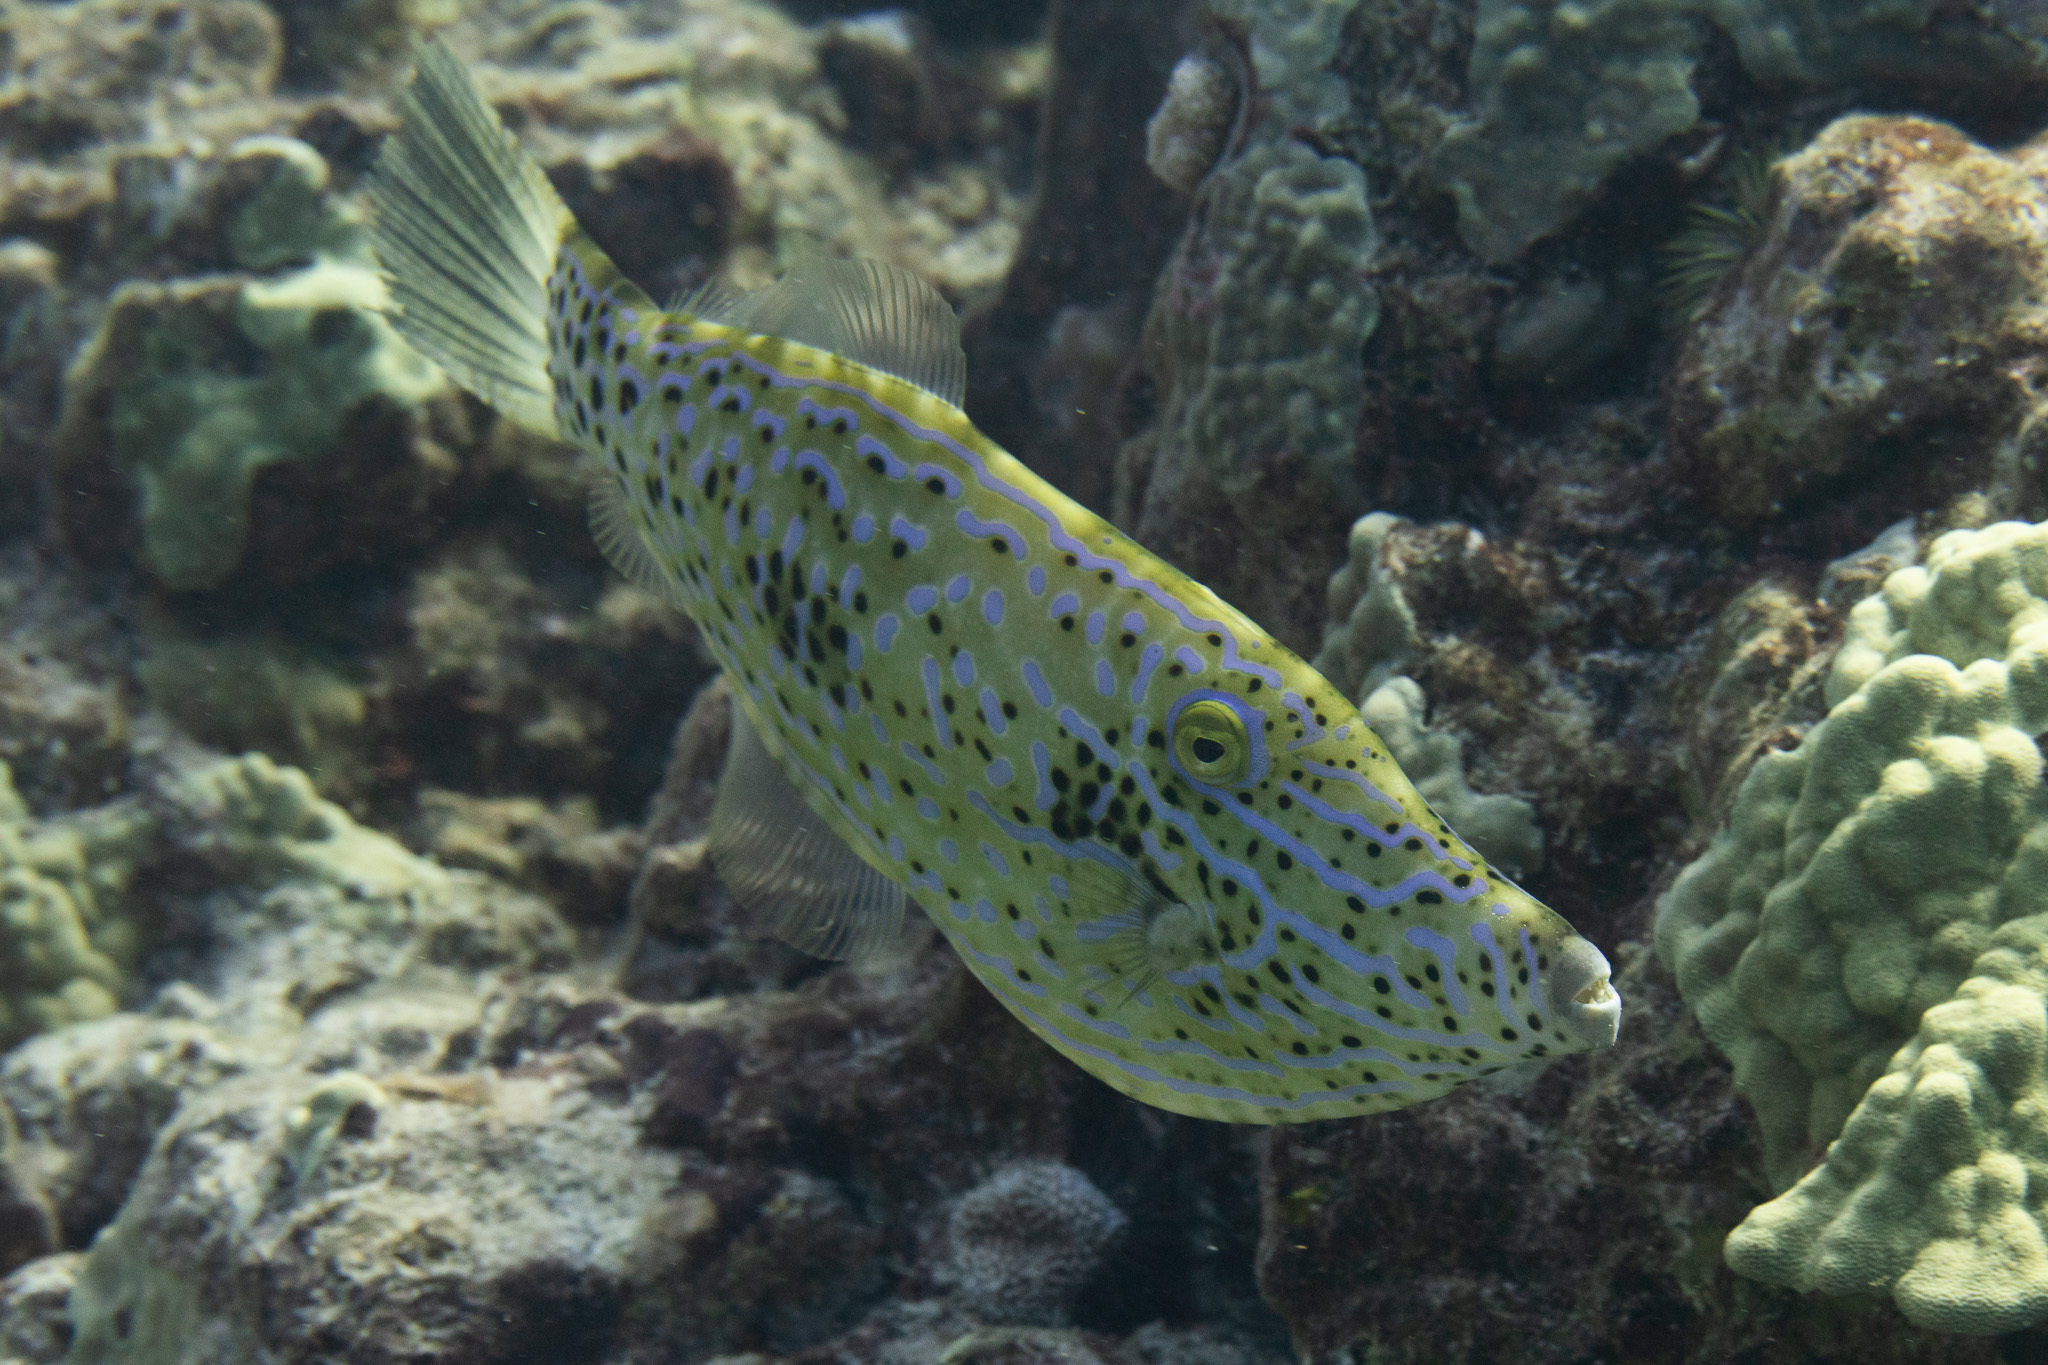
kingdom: Animalia
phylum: Chordata
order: Tetraodontiformes
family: Monacanthidae
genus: Aluterus
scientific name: Aluterus scriptus
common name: Scribbled leatherjacket filefish
